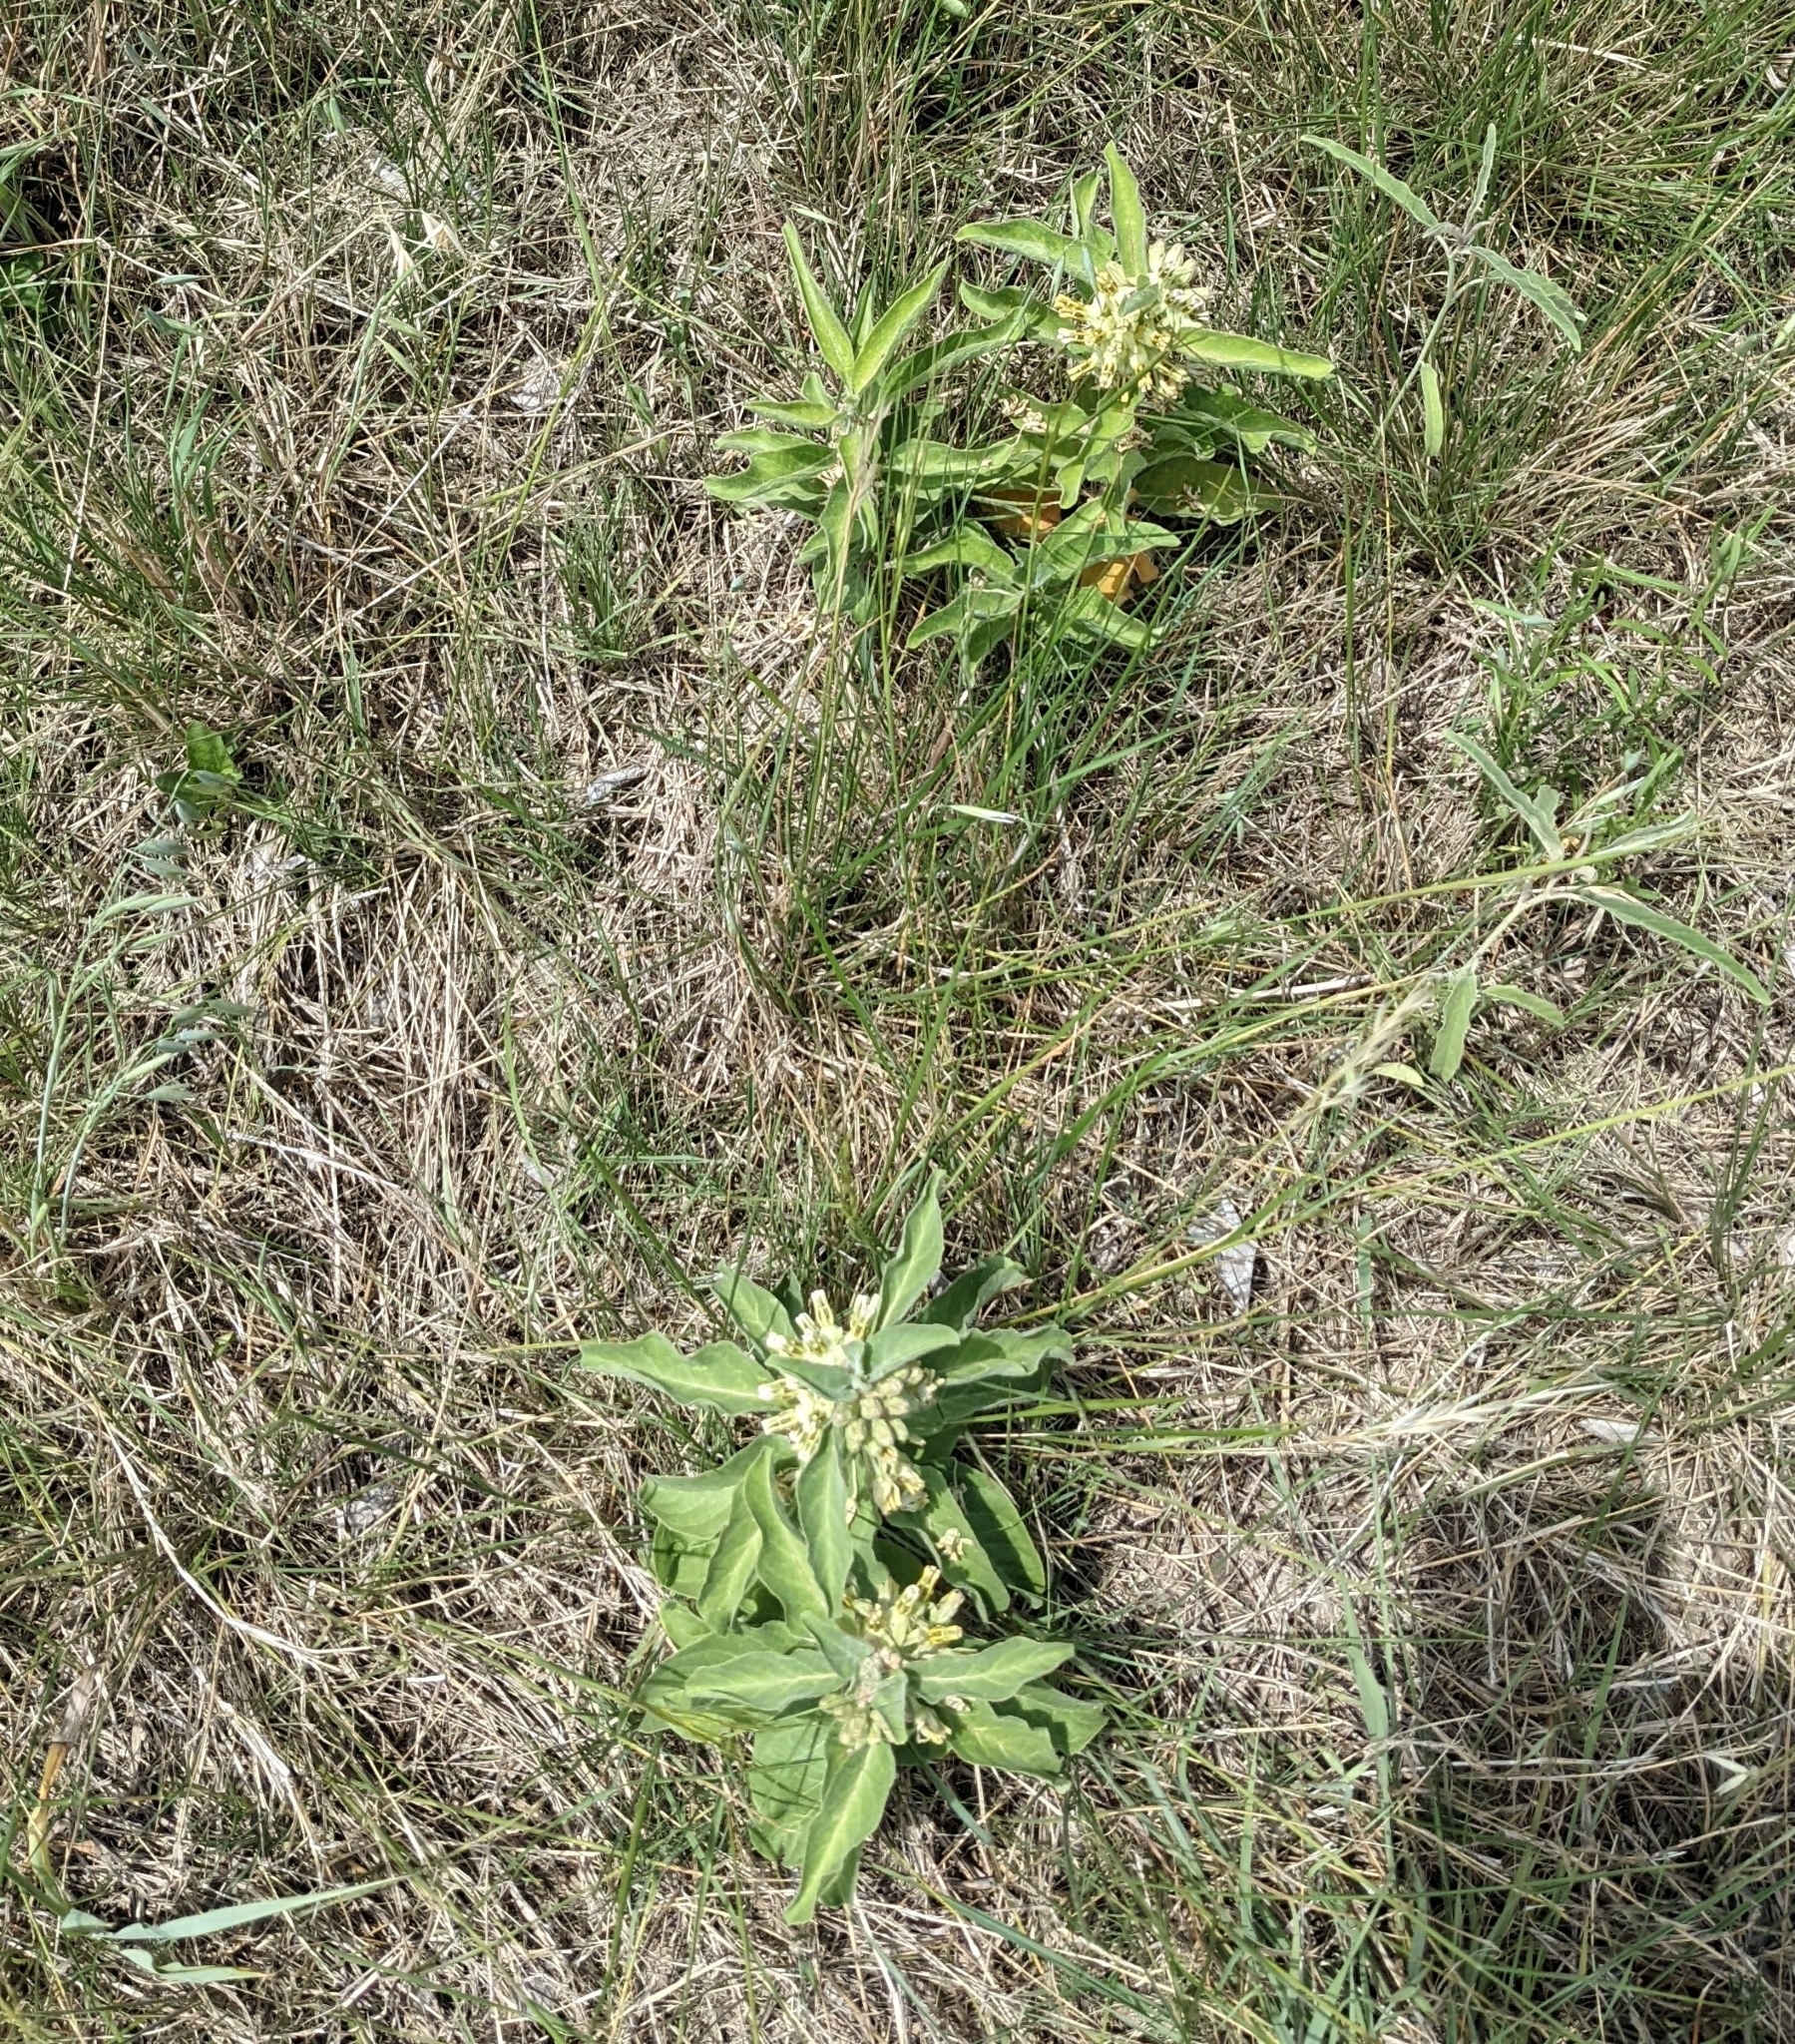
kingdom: Plantae
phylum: Tracheophyta
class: Magnoliopsida
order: Gentianales
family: Apocynaceae
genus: Asclepias
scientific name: Asclepias oenotheroides
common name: Zizotes milkweed
